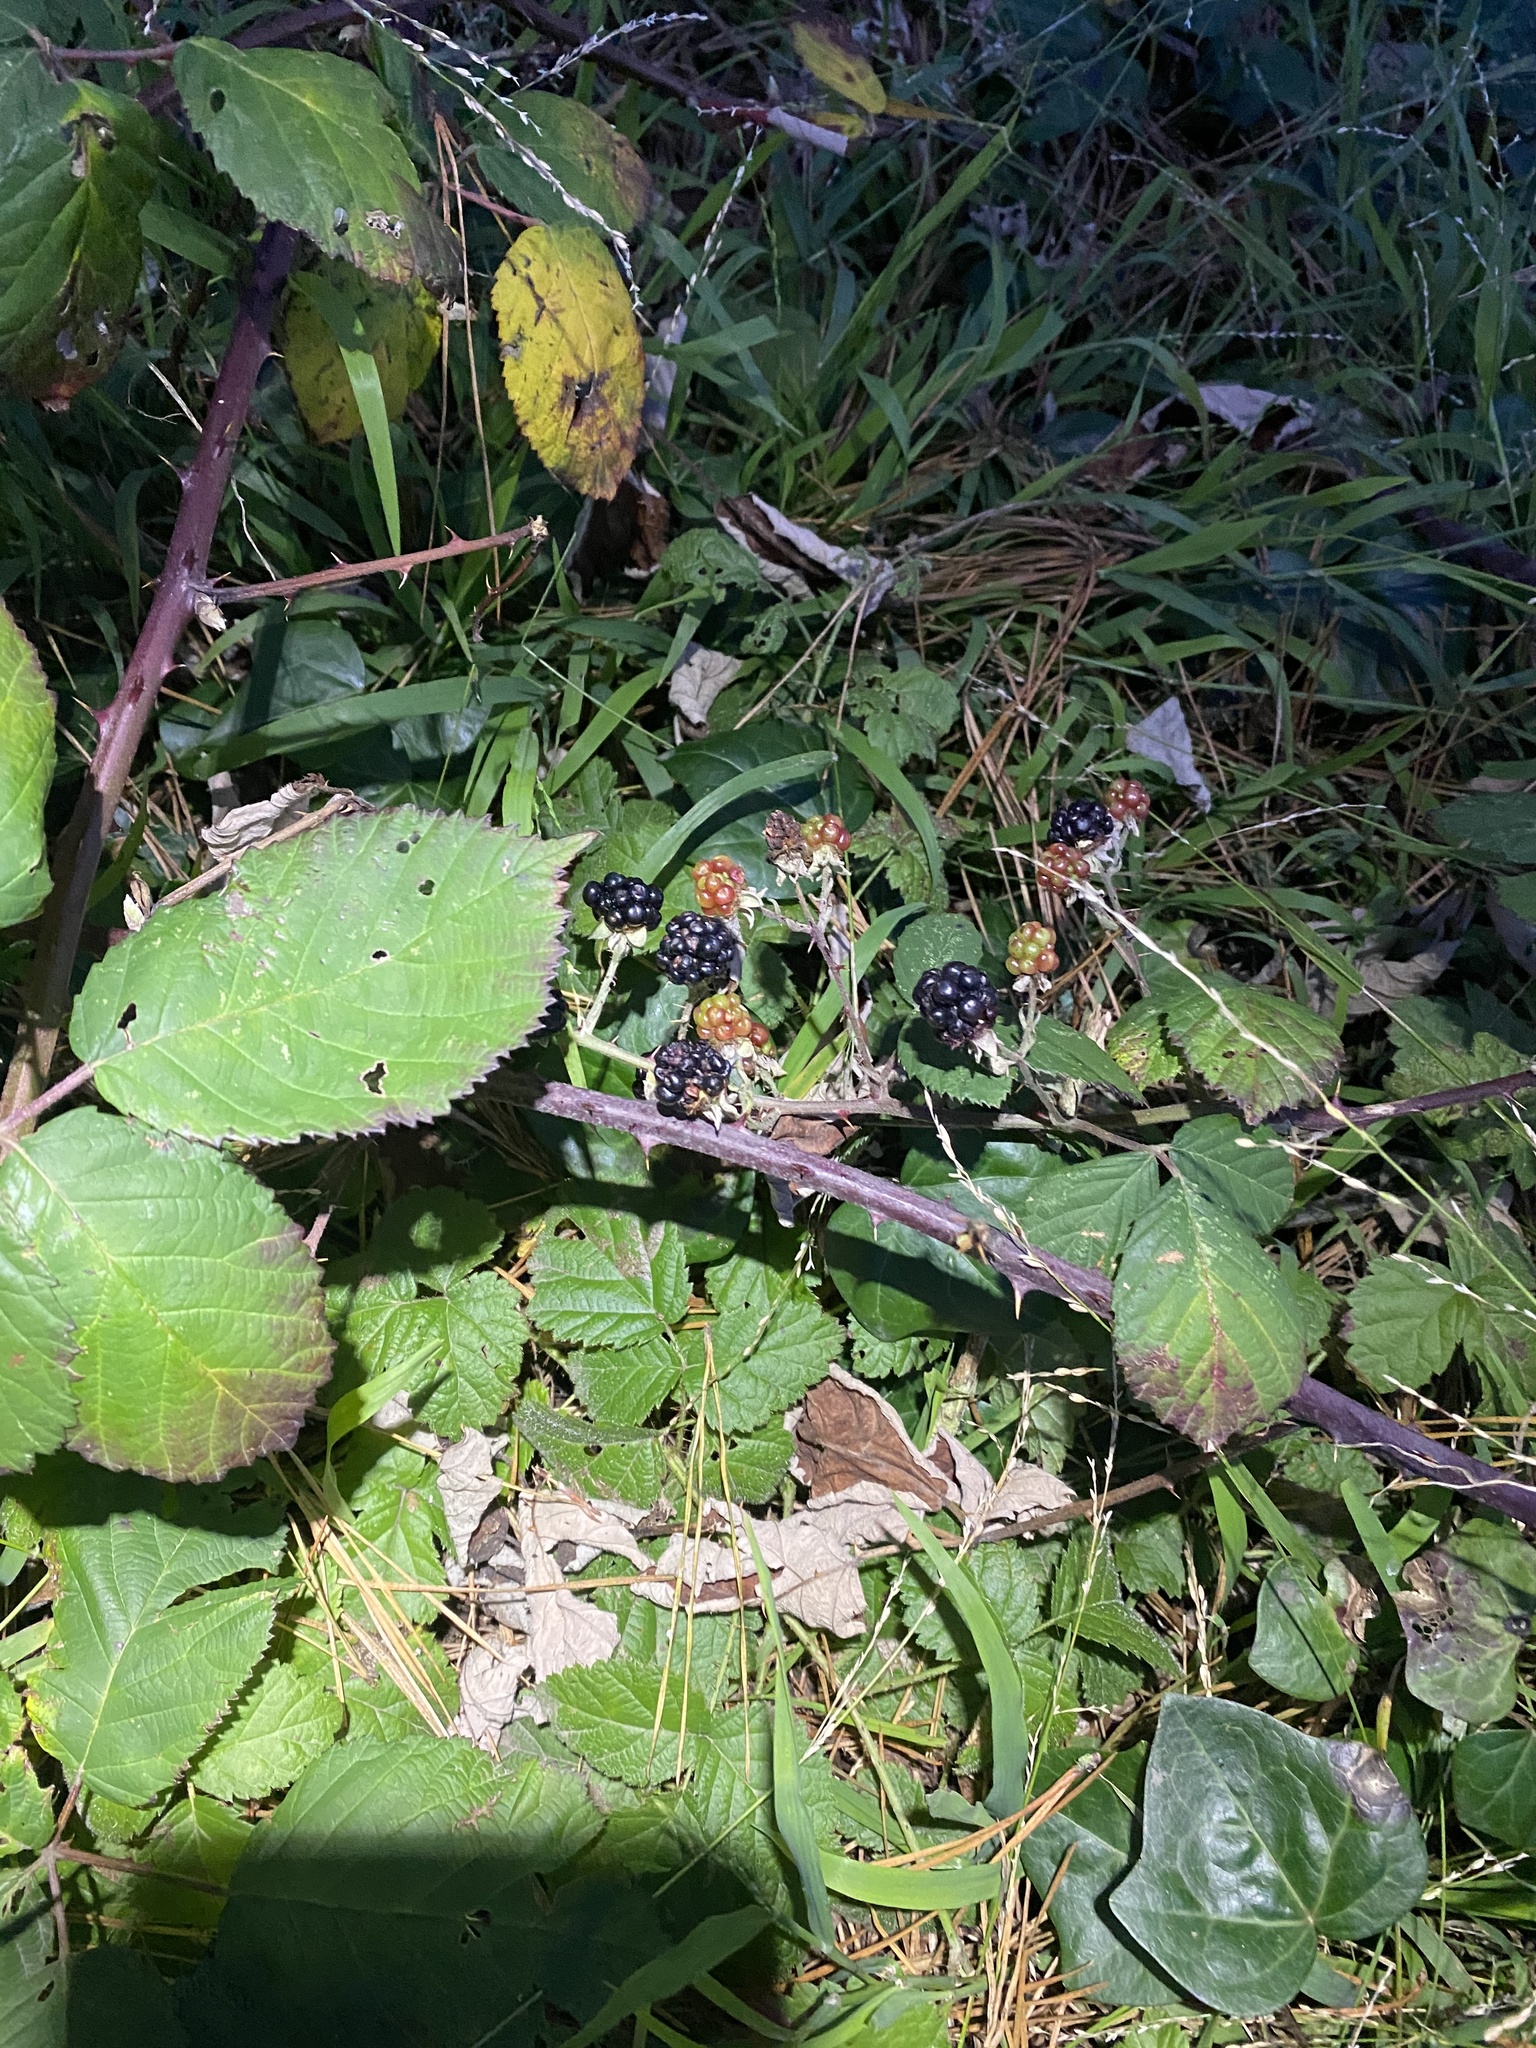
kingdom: Plantae
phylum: Tracheophyta
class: Magnoliopsida
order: Rosales
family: Rosaceae
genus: Rubus
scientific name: Rubus bifrons
